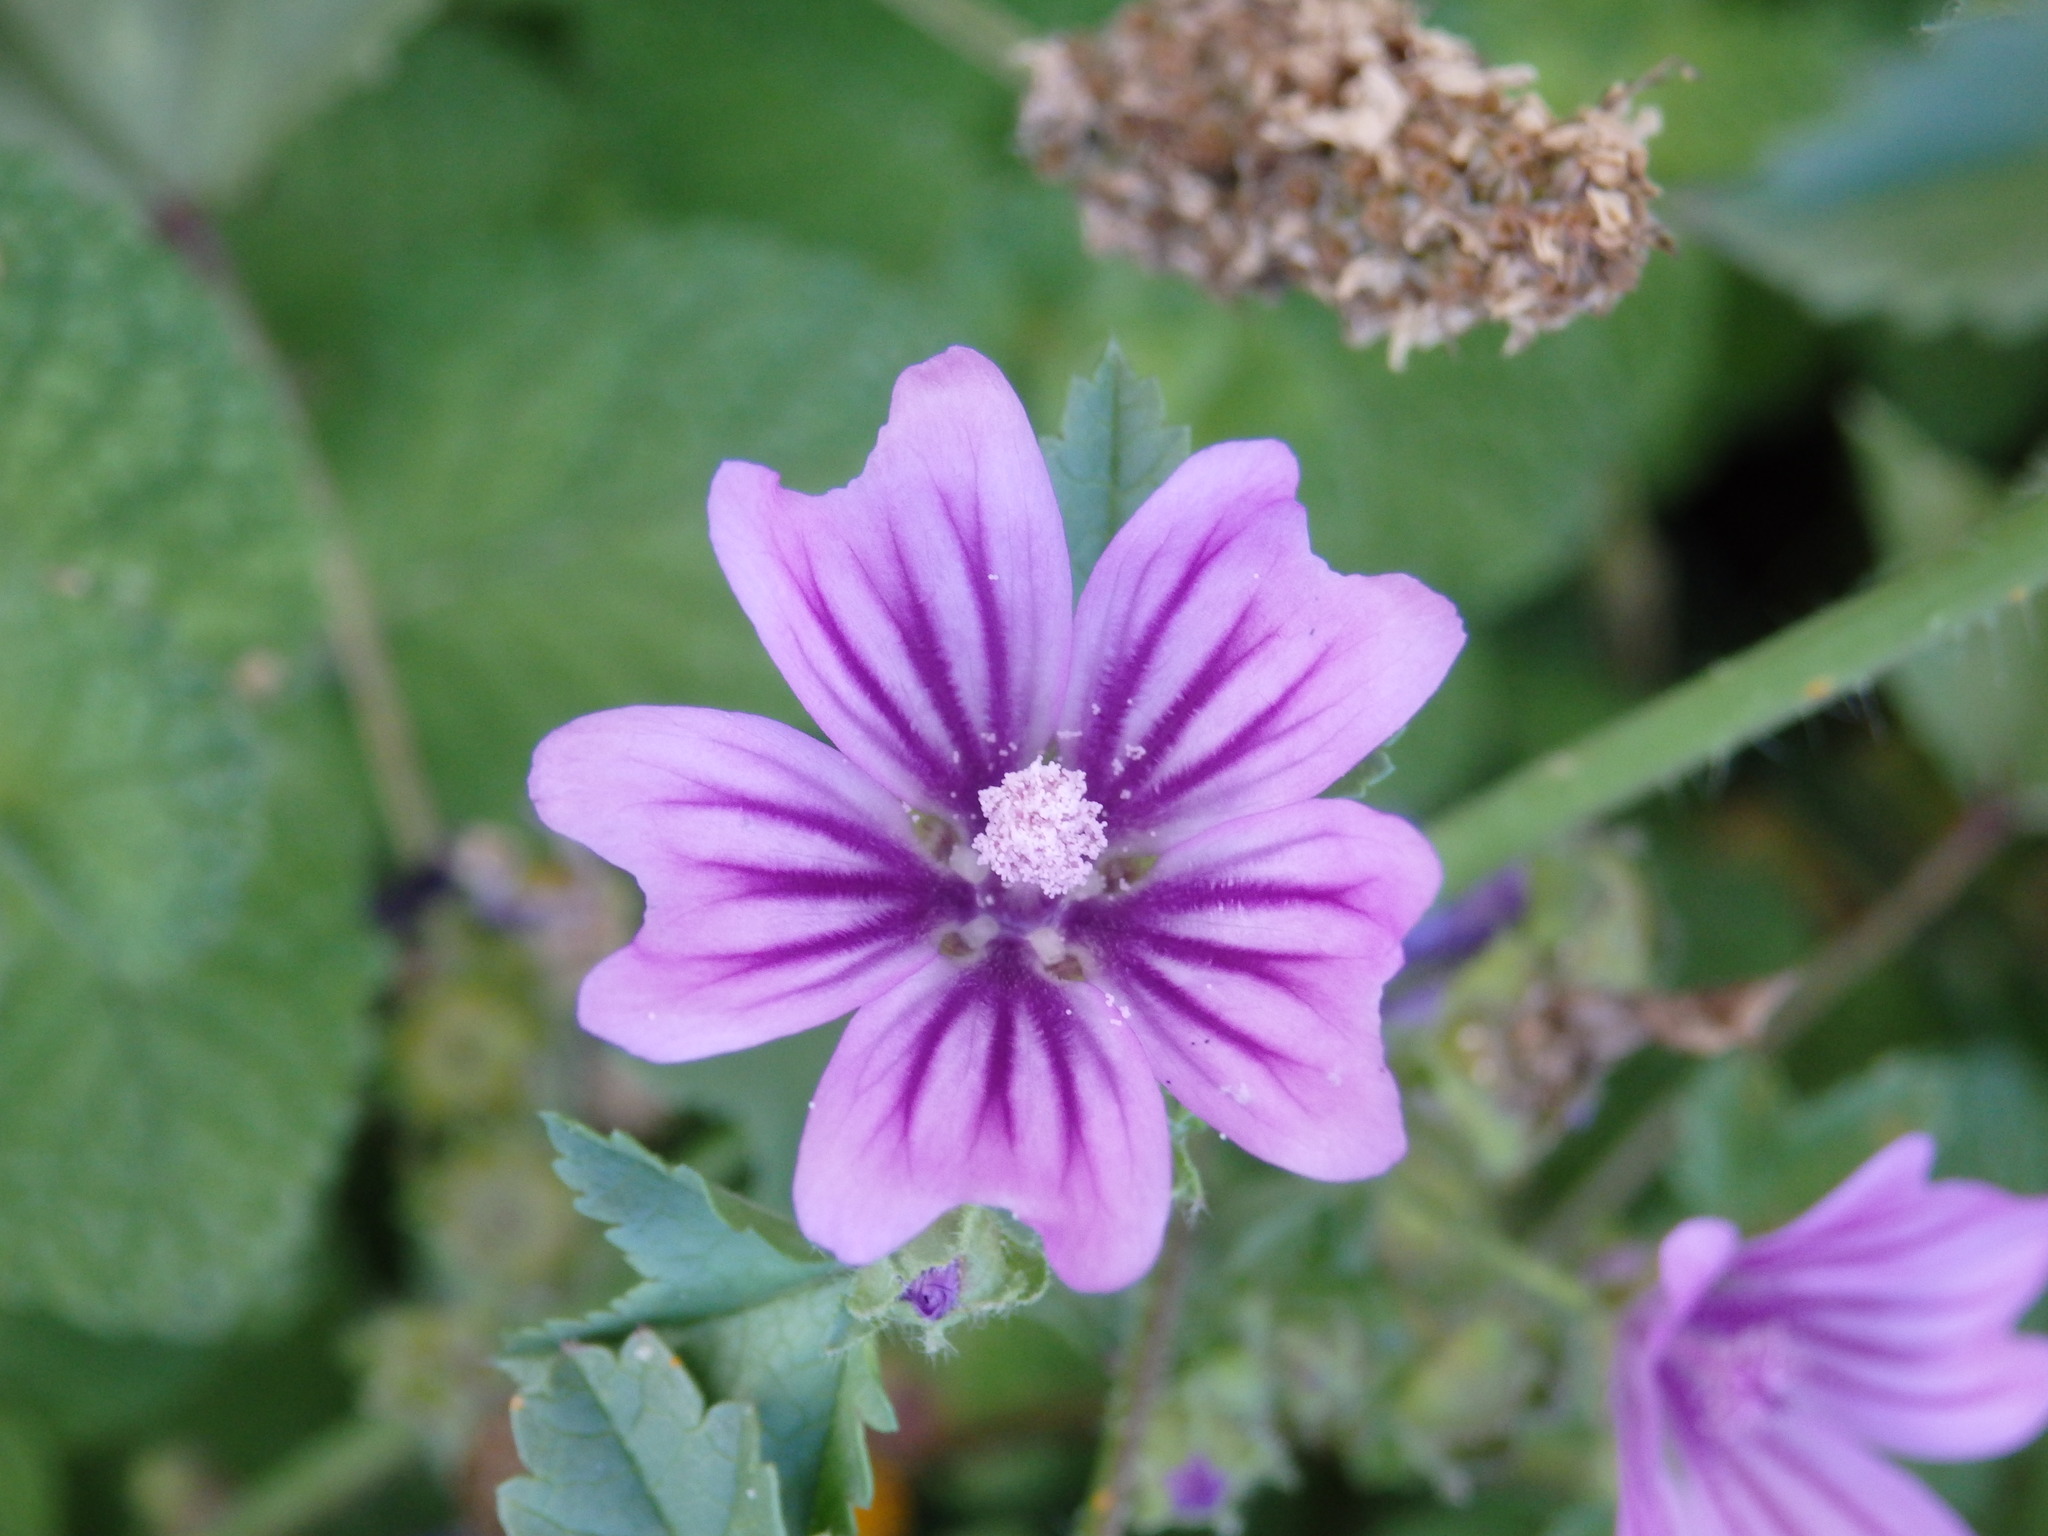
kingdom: Plantae
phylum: Tracheophyta
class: Magnoliopsida
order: Malvales
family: Malvaceae
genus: Malva
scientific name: Malva sylvestris
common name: Common mallow
